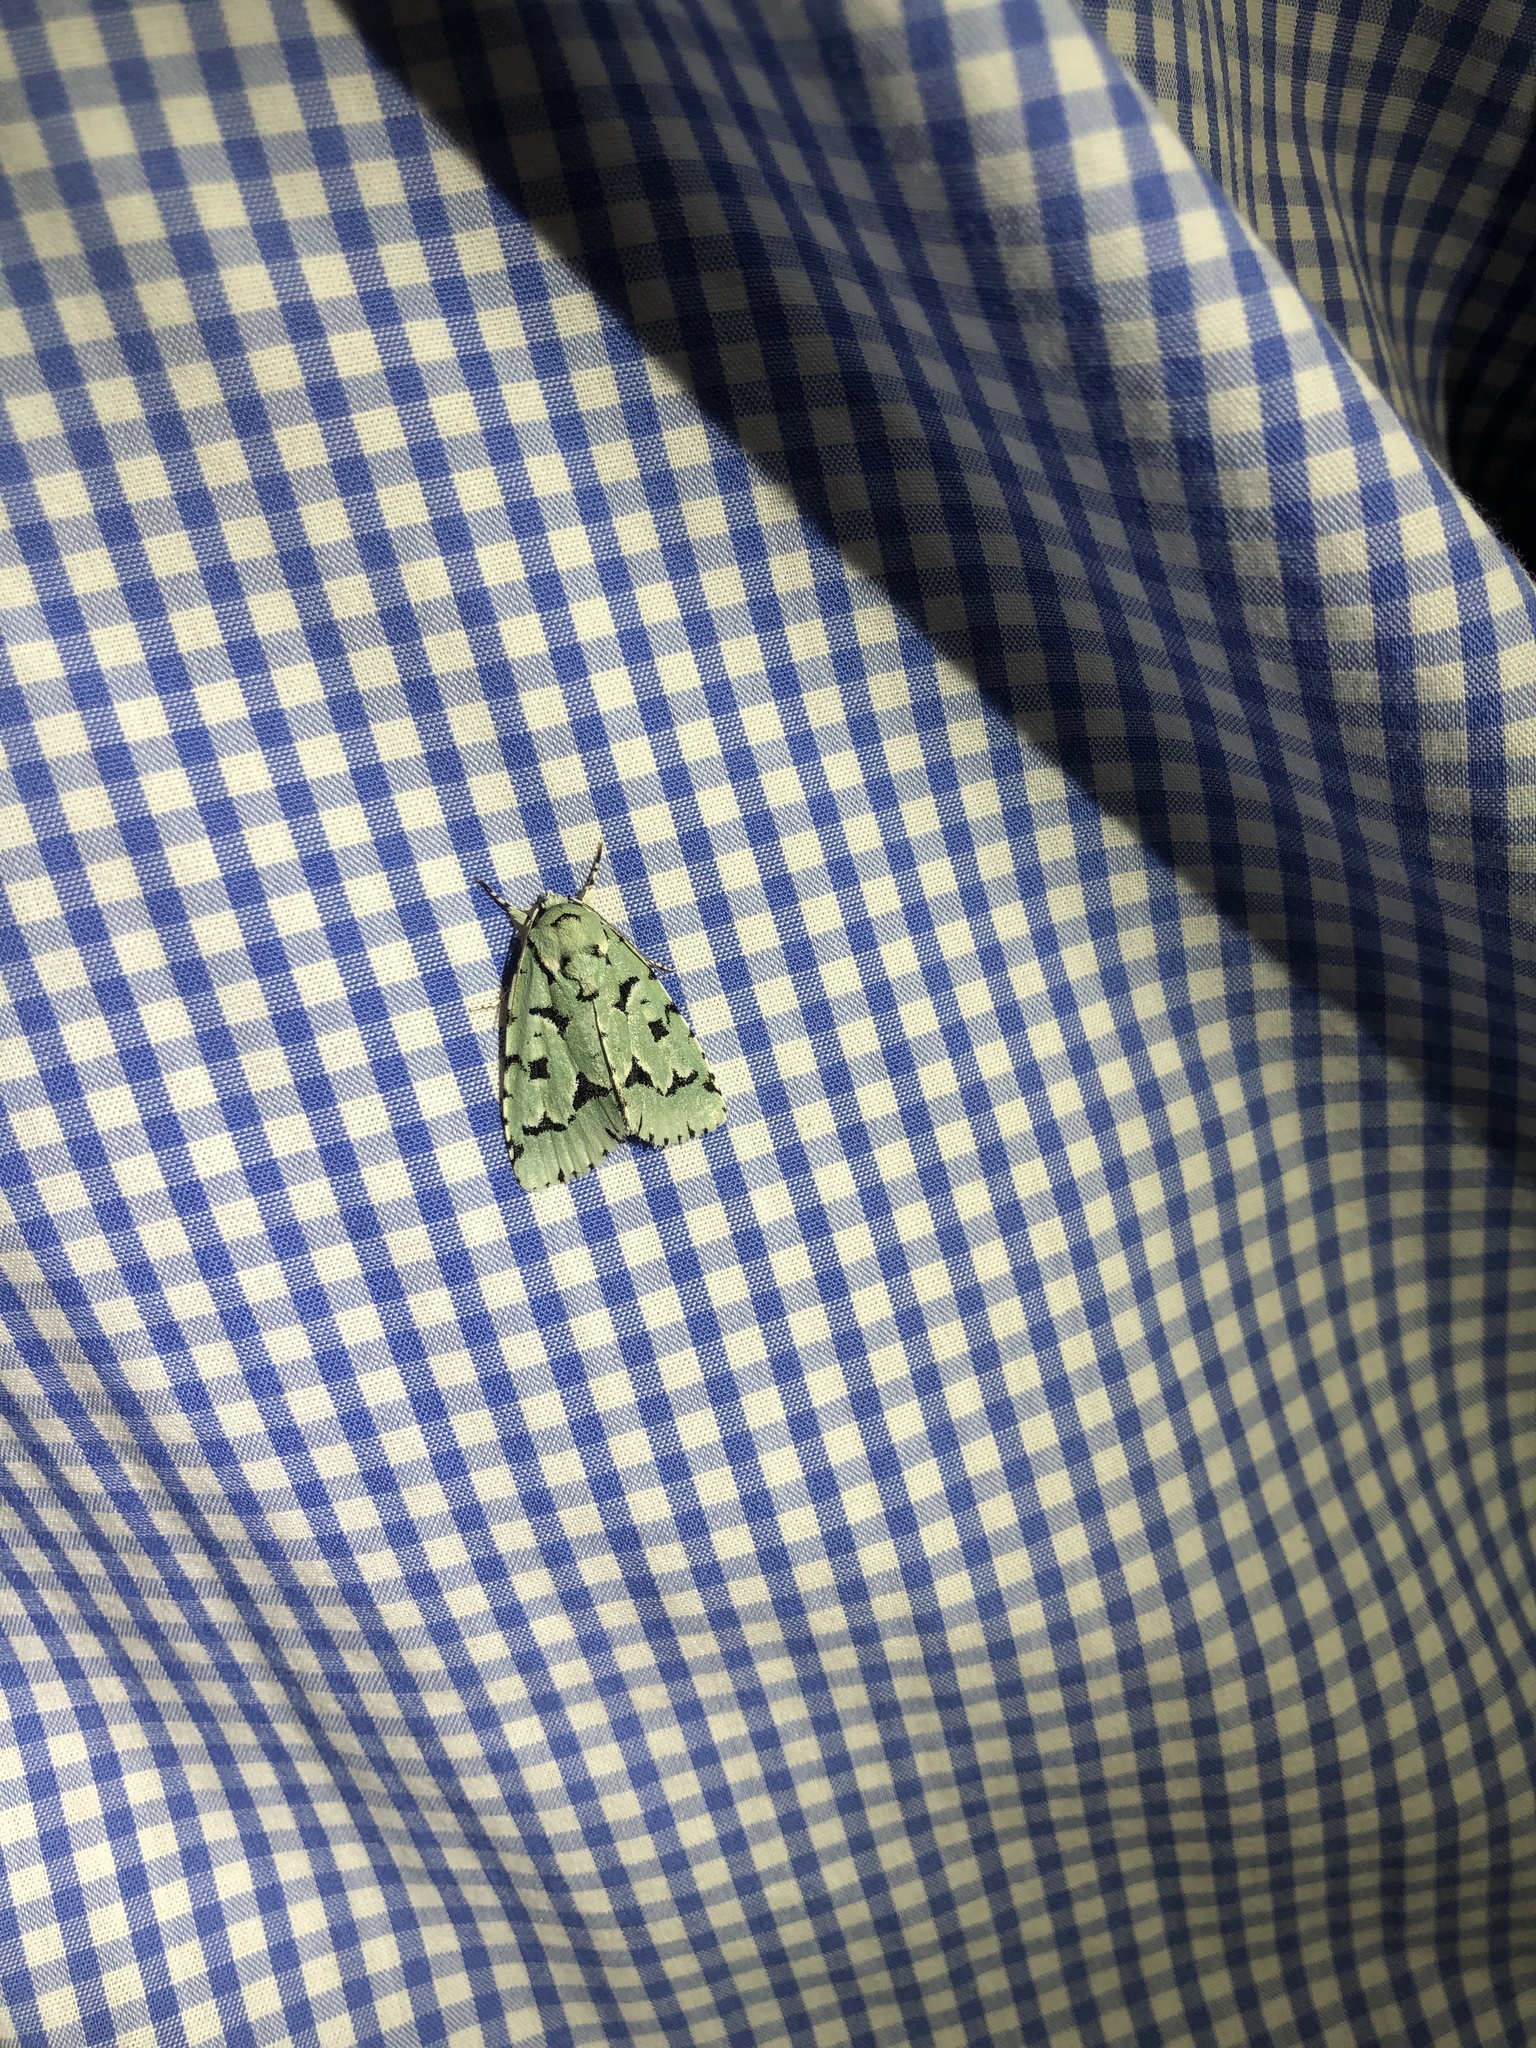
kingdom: Animalia
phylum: Arthropoda
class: Insecta
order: Lepidoptera
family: Noctuidae
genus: Acronicta
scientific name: Acronicta fallax
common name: Green marvel
